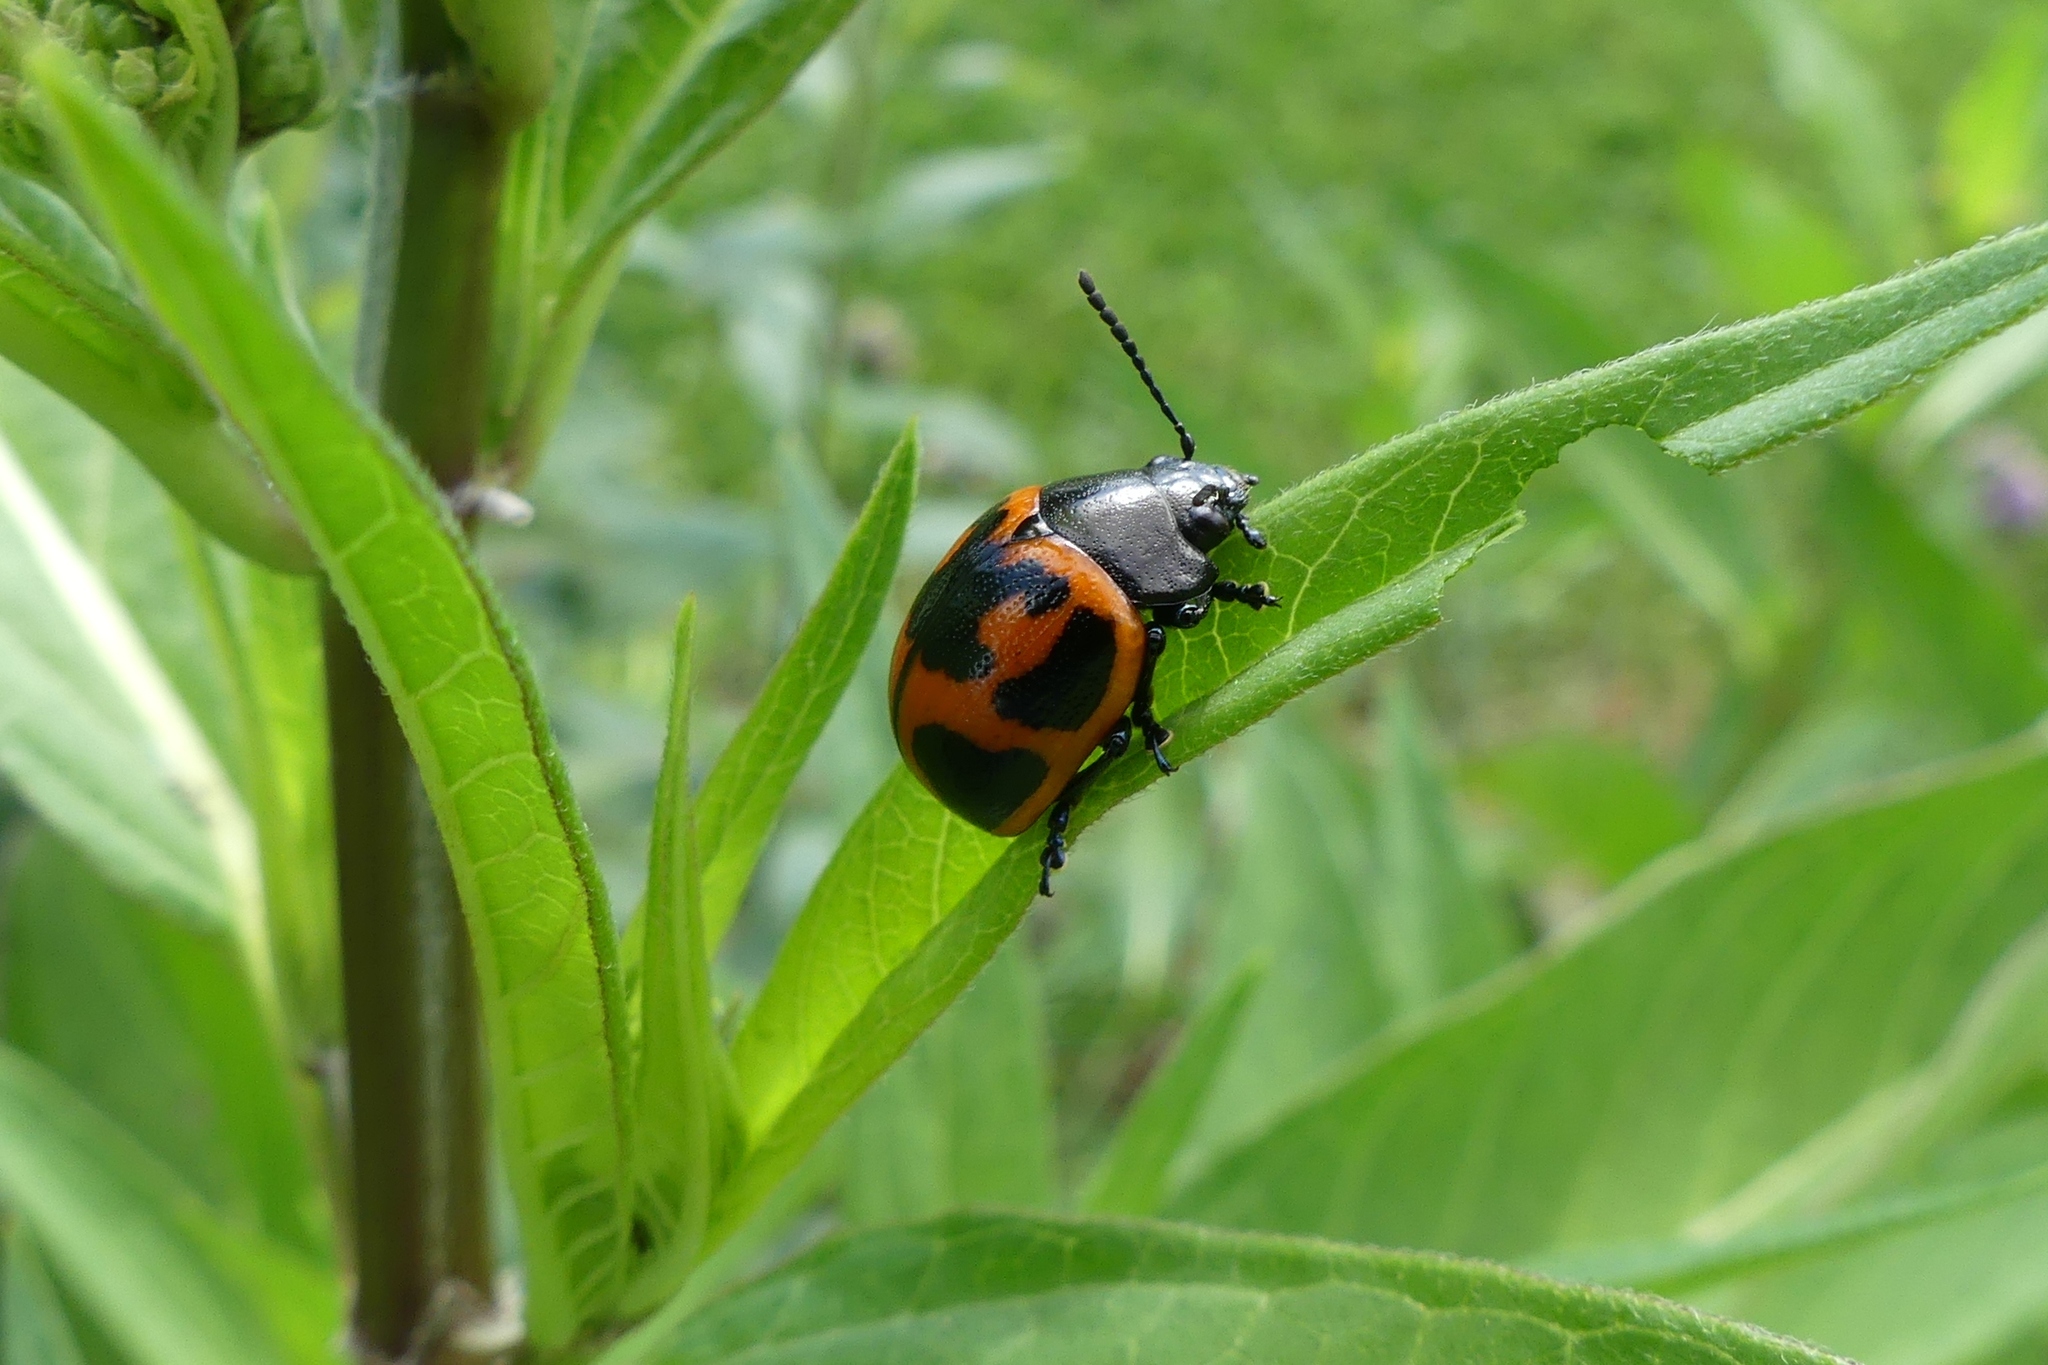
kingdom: Animalia
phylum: Arthropoda
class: Insecta
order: Coleoptera
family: Chrysomelidae
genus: Labidomera
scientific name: Labidomera clivicollis
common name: Swamp milkweed leaf beetle
